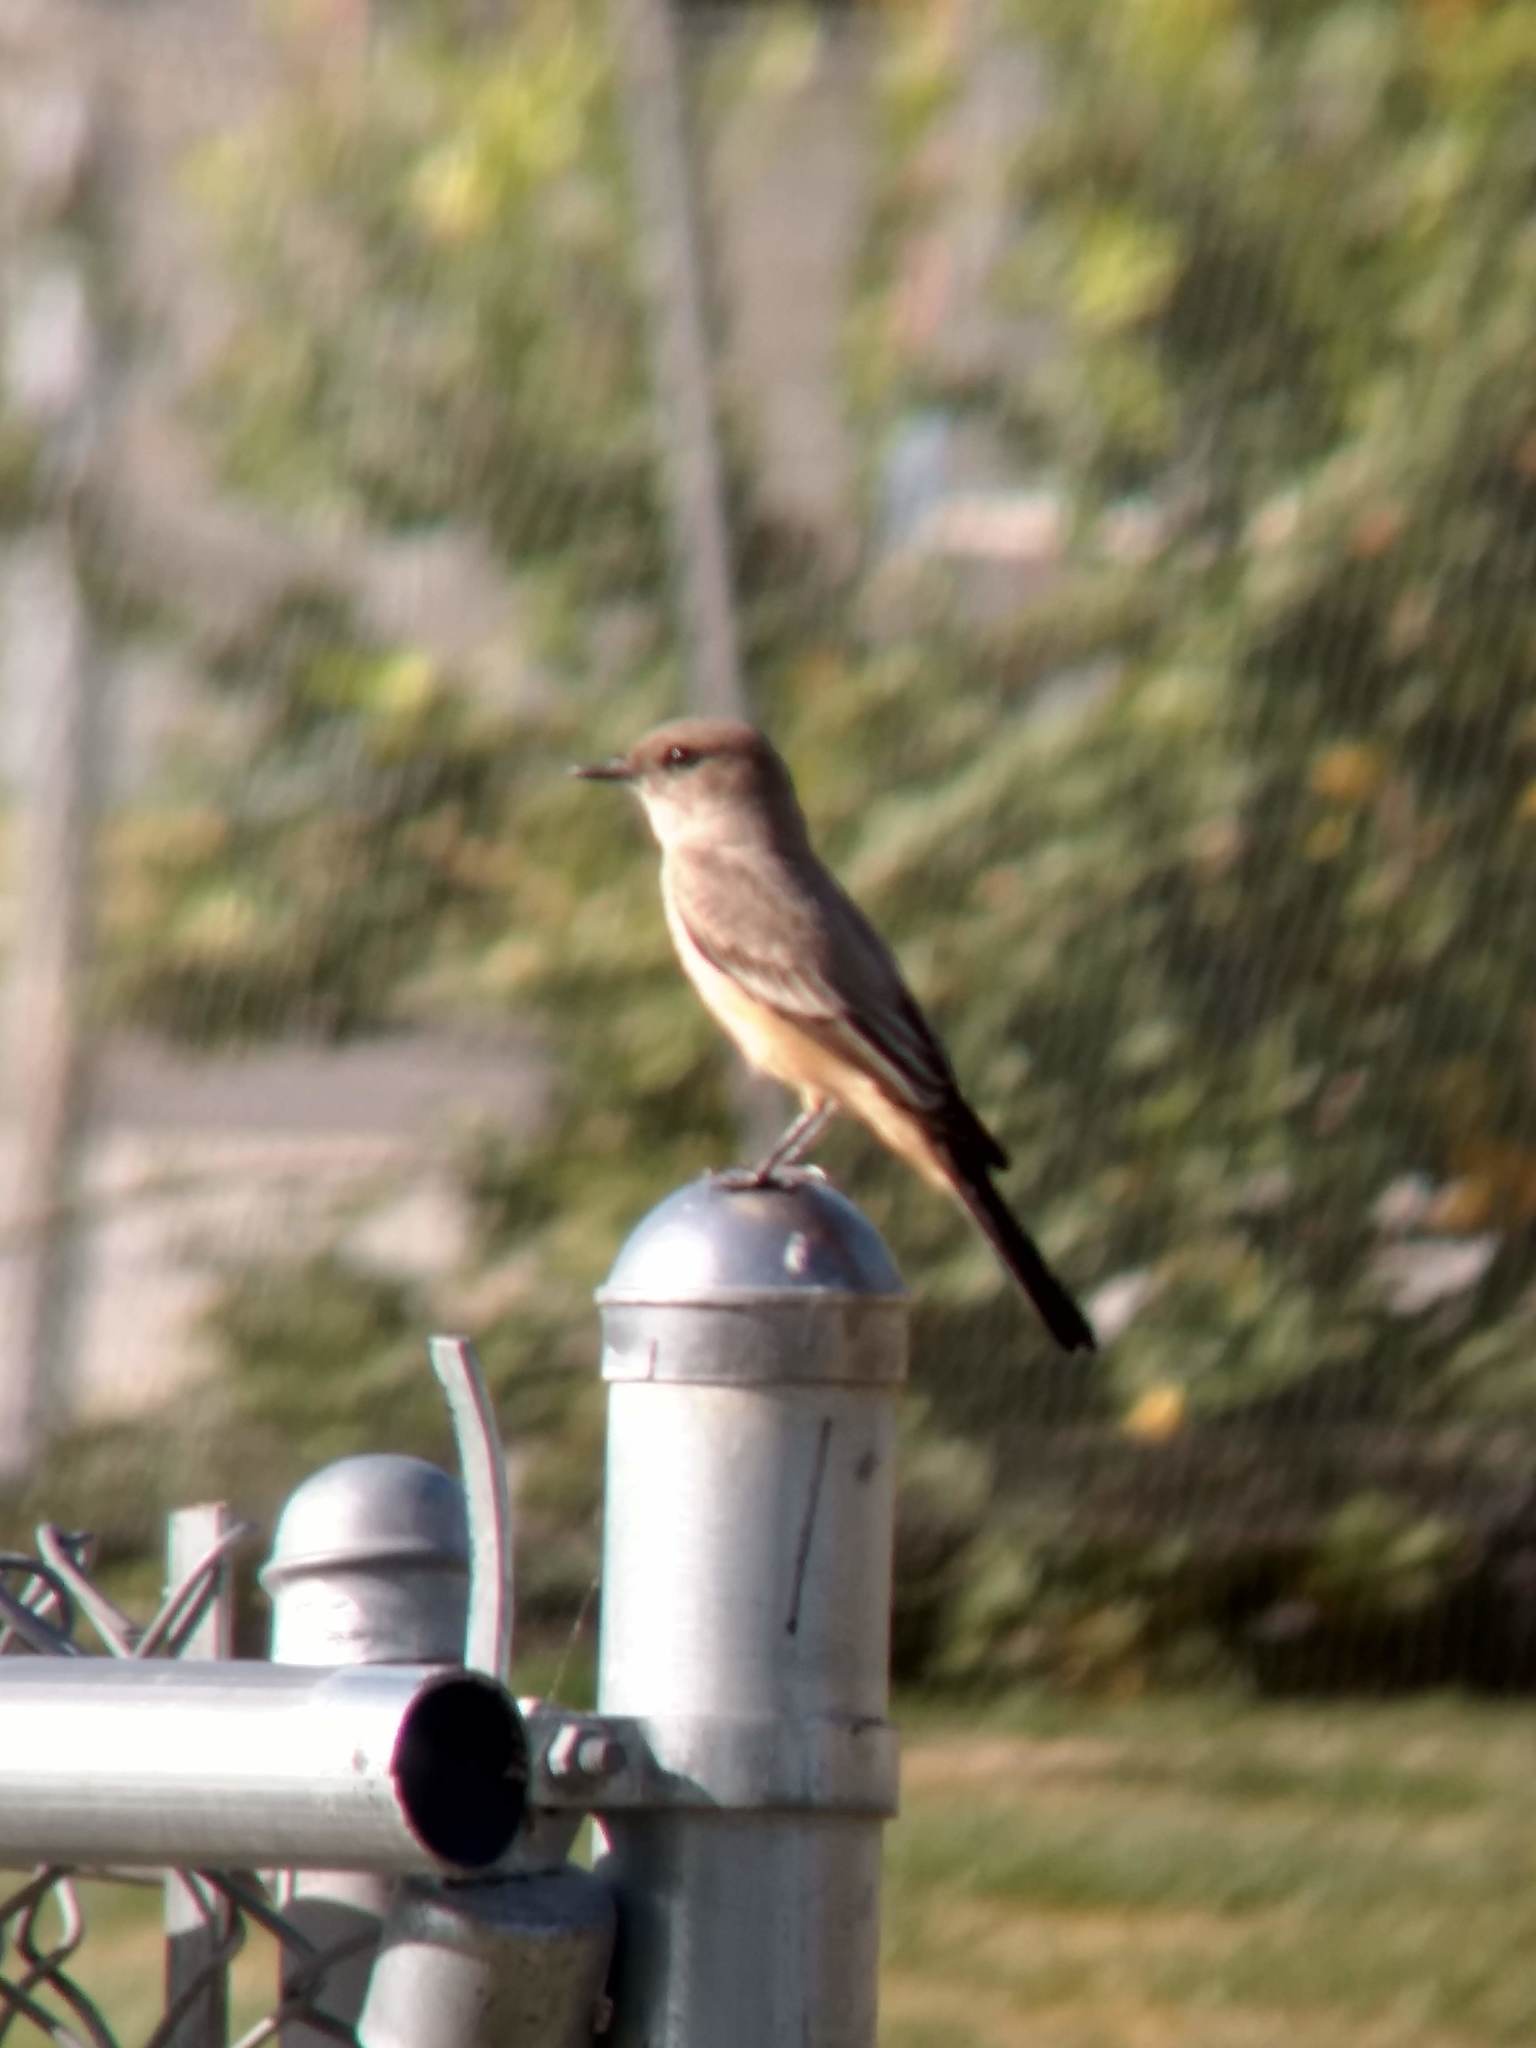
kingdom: Animalia
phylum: Chordata
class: Aves
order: Passeriformes
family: Tyrannidae
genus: Sayornis
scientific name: Sayornis saya
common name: Say's phoebe
